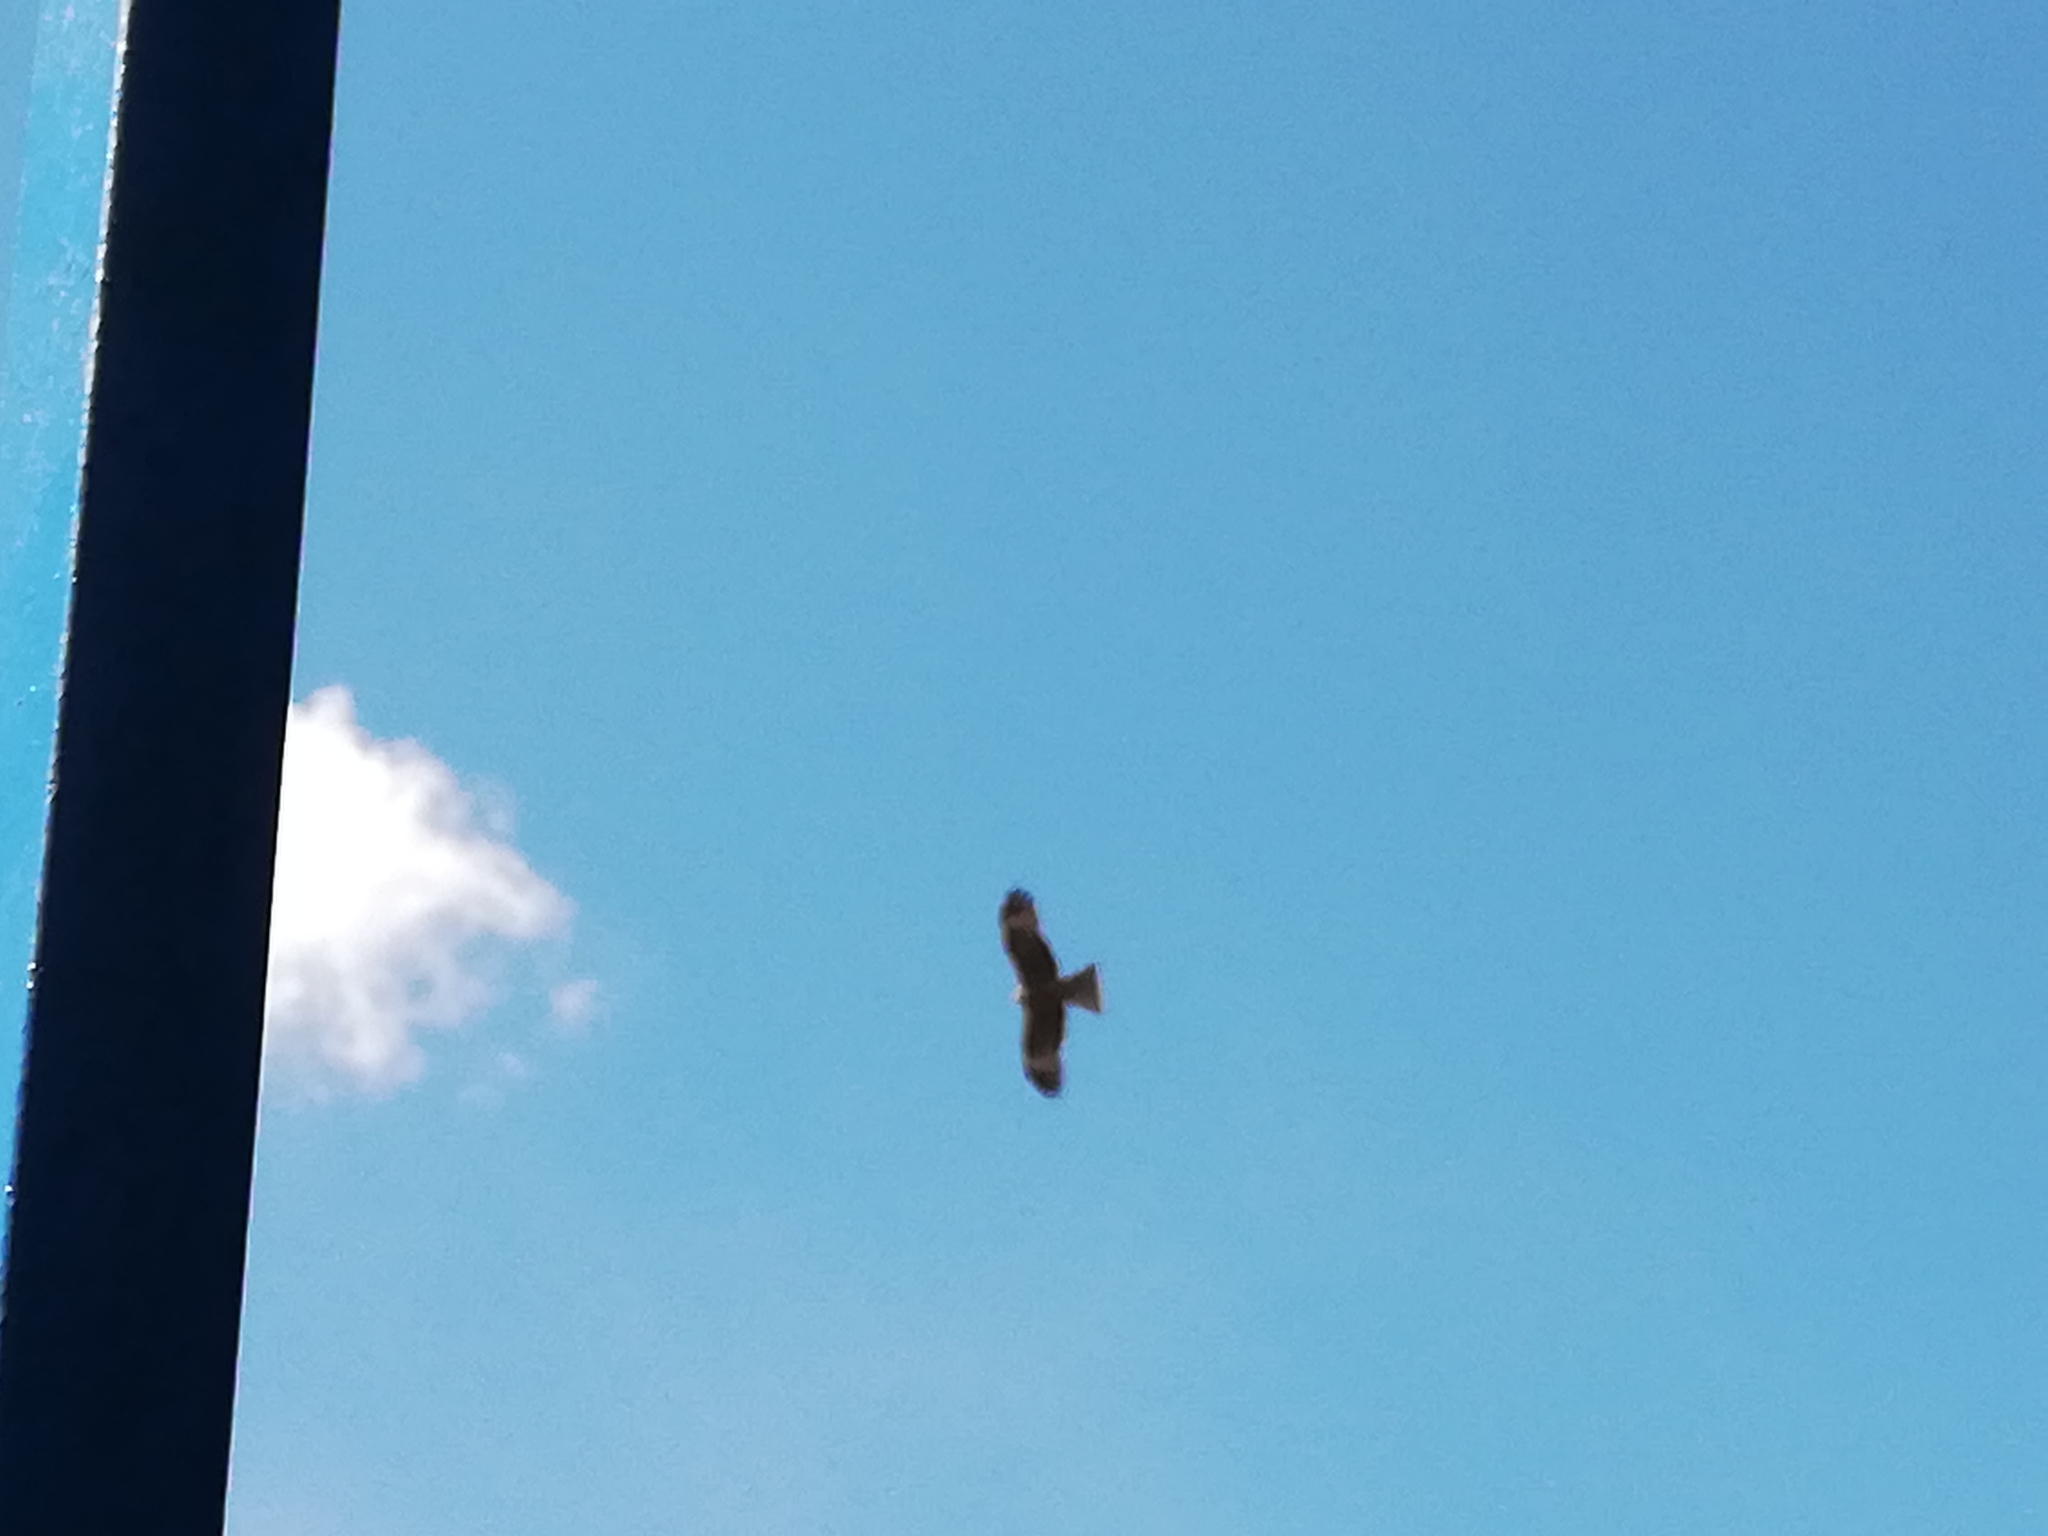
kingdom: Animalia
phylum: Chordata
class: Aves
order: Accipitriformes
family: Accipitridae
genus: Milvus
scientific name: Milvus migrans
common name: Black kite
